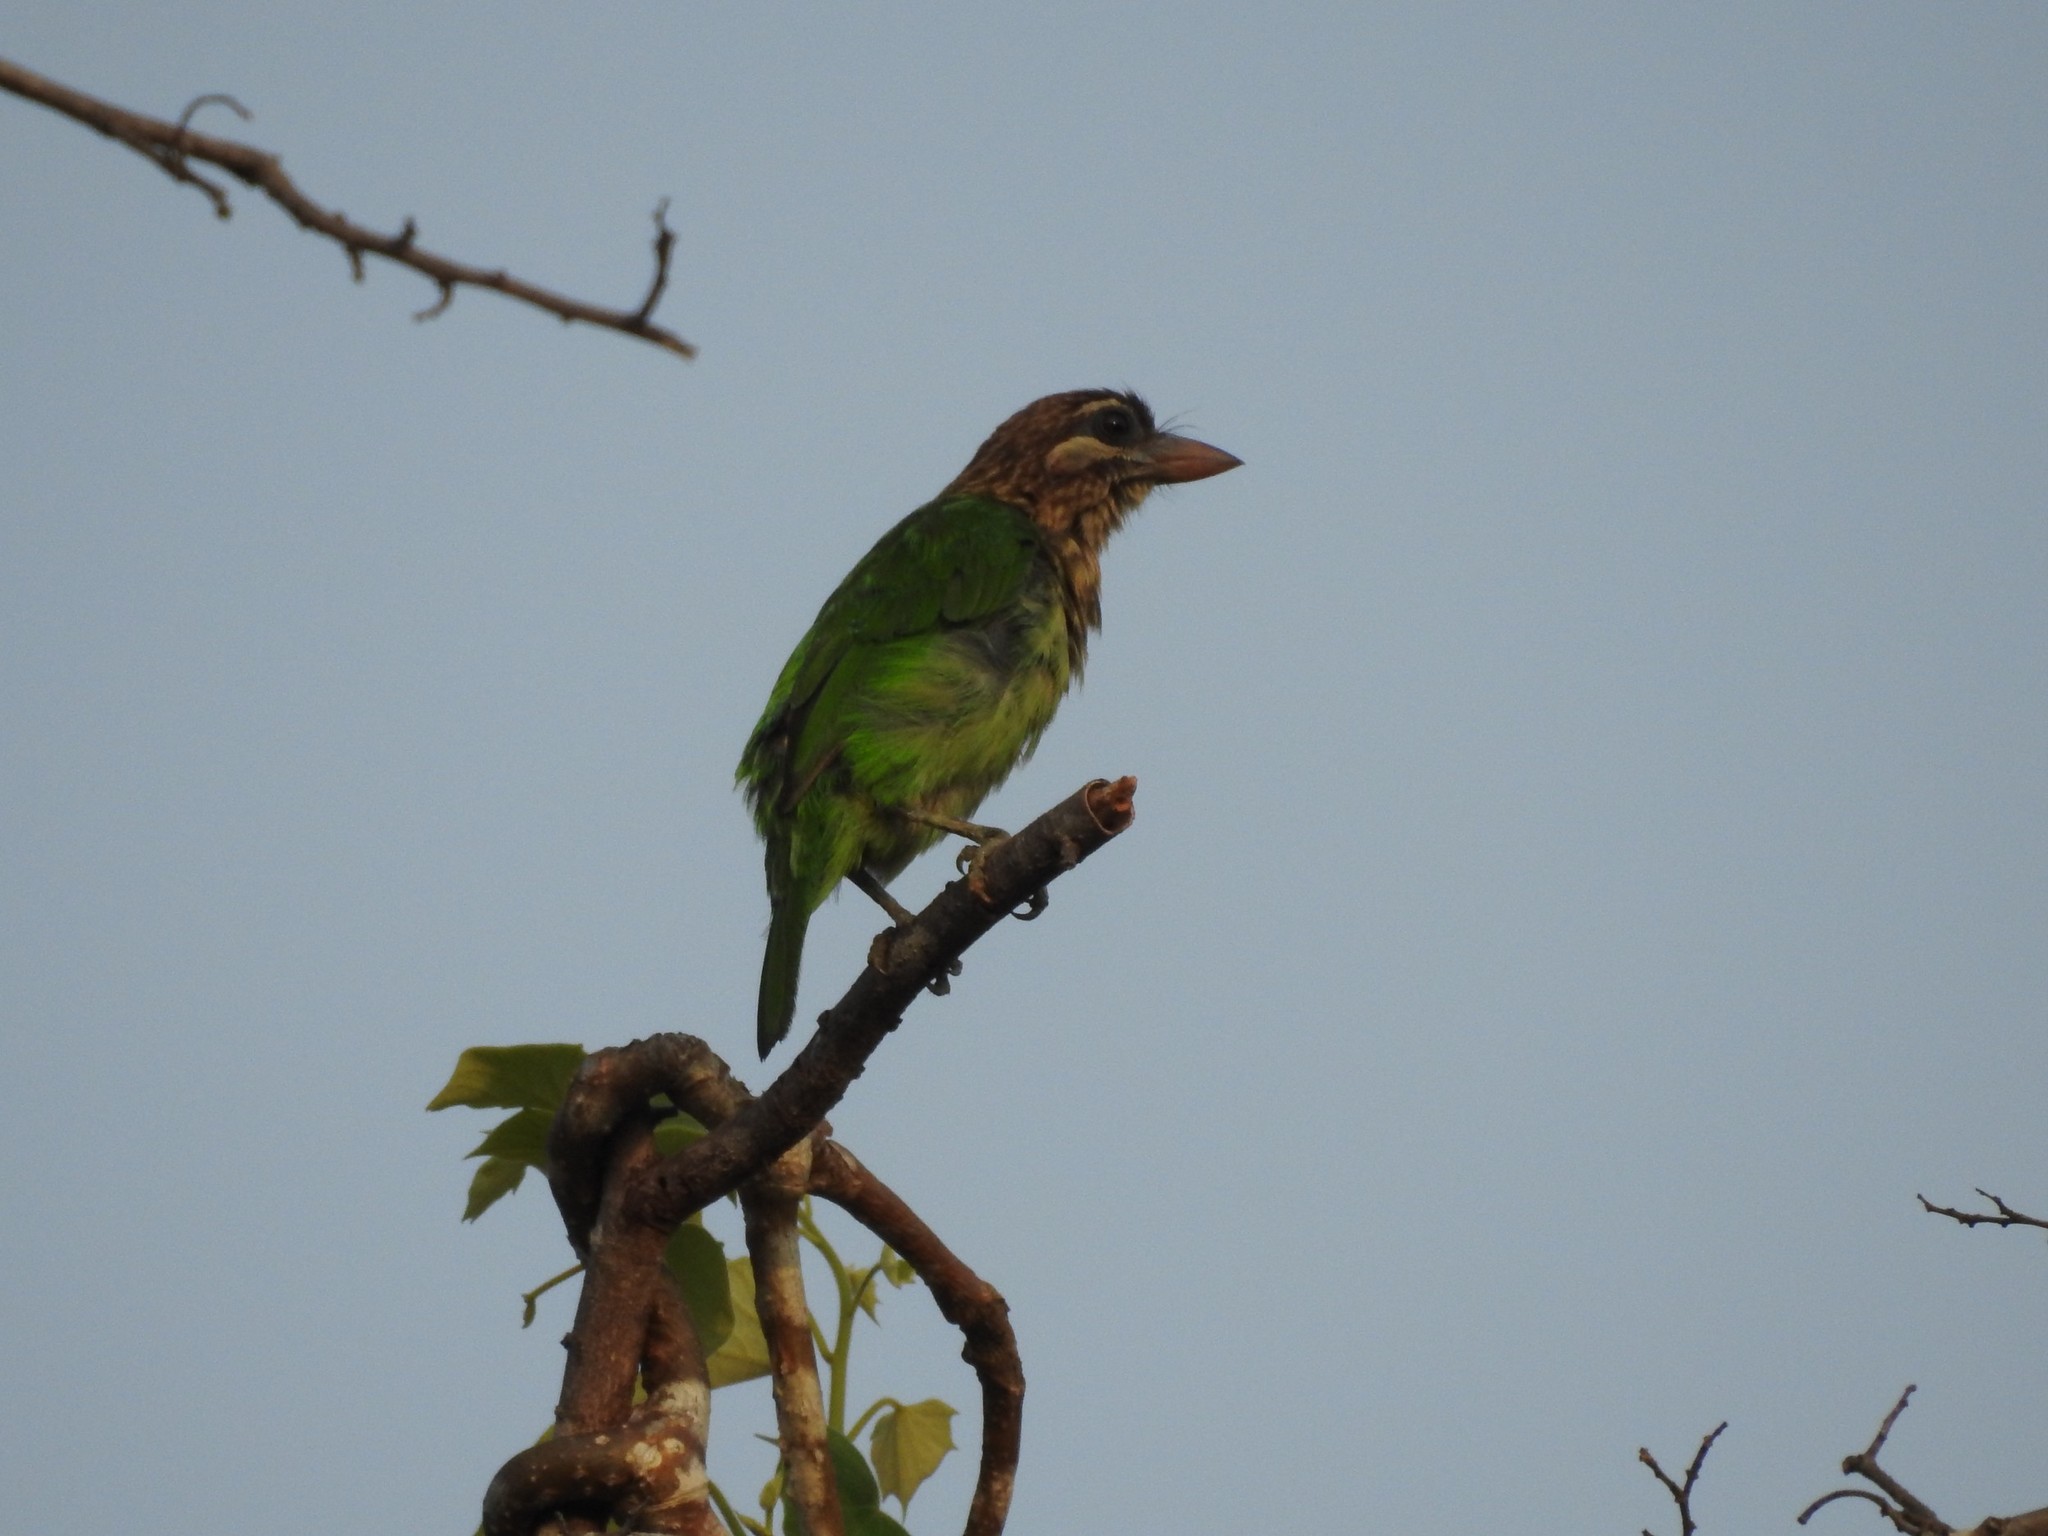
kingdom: Animalia
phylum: Chordata
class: Aves
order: Piciformes
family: Megalaimidae
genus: Psilopogon
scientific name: Psilopogon viridis
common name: White-cheeked barbet
